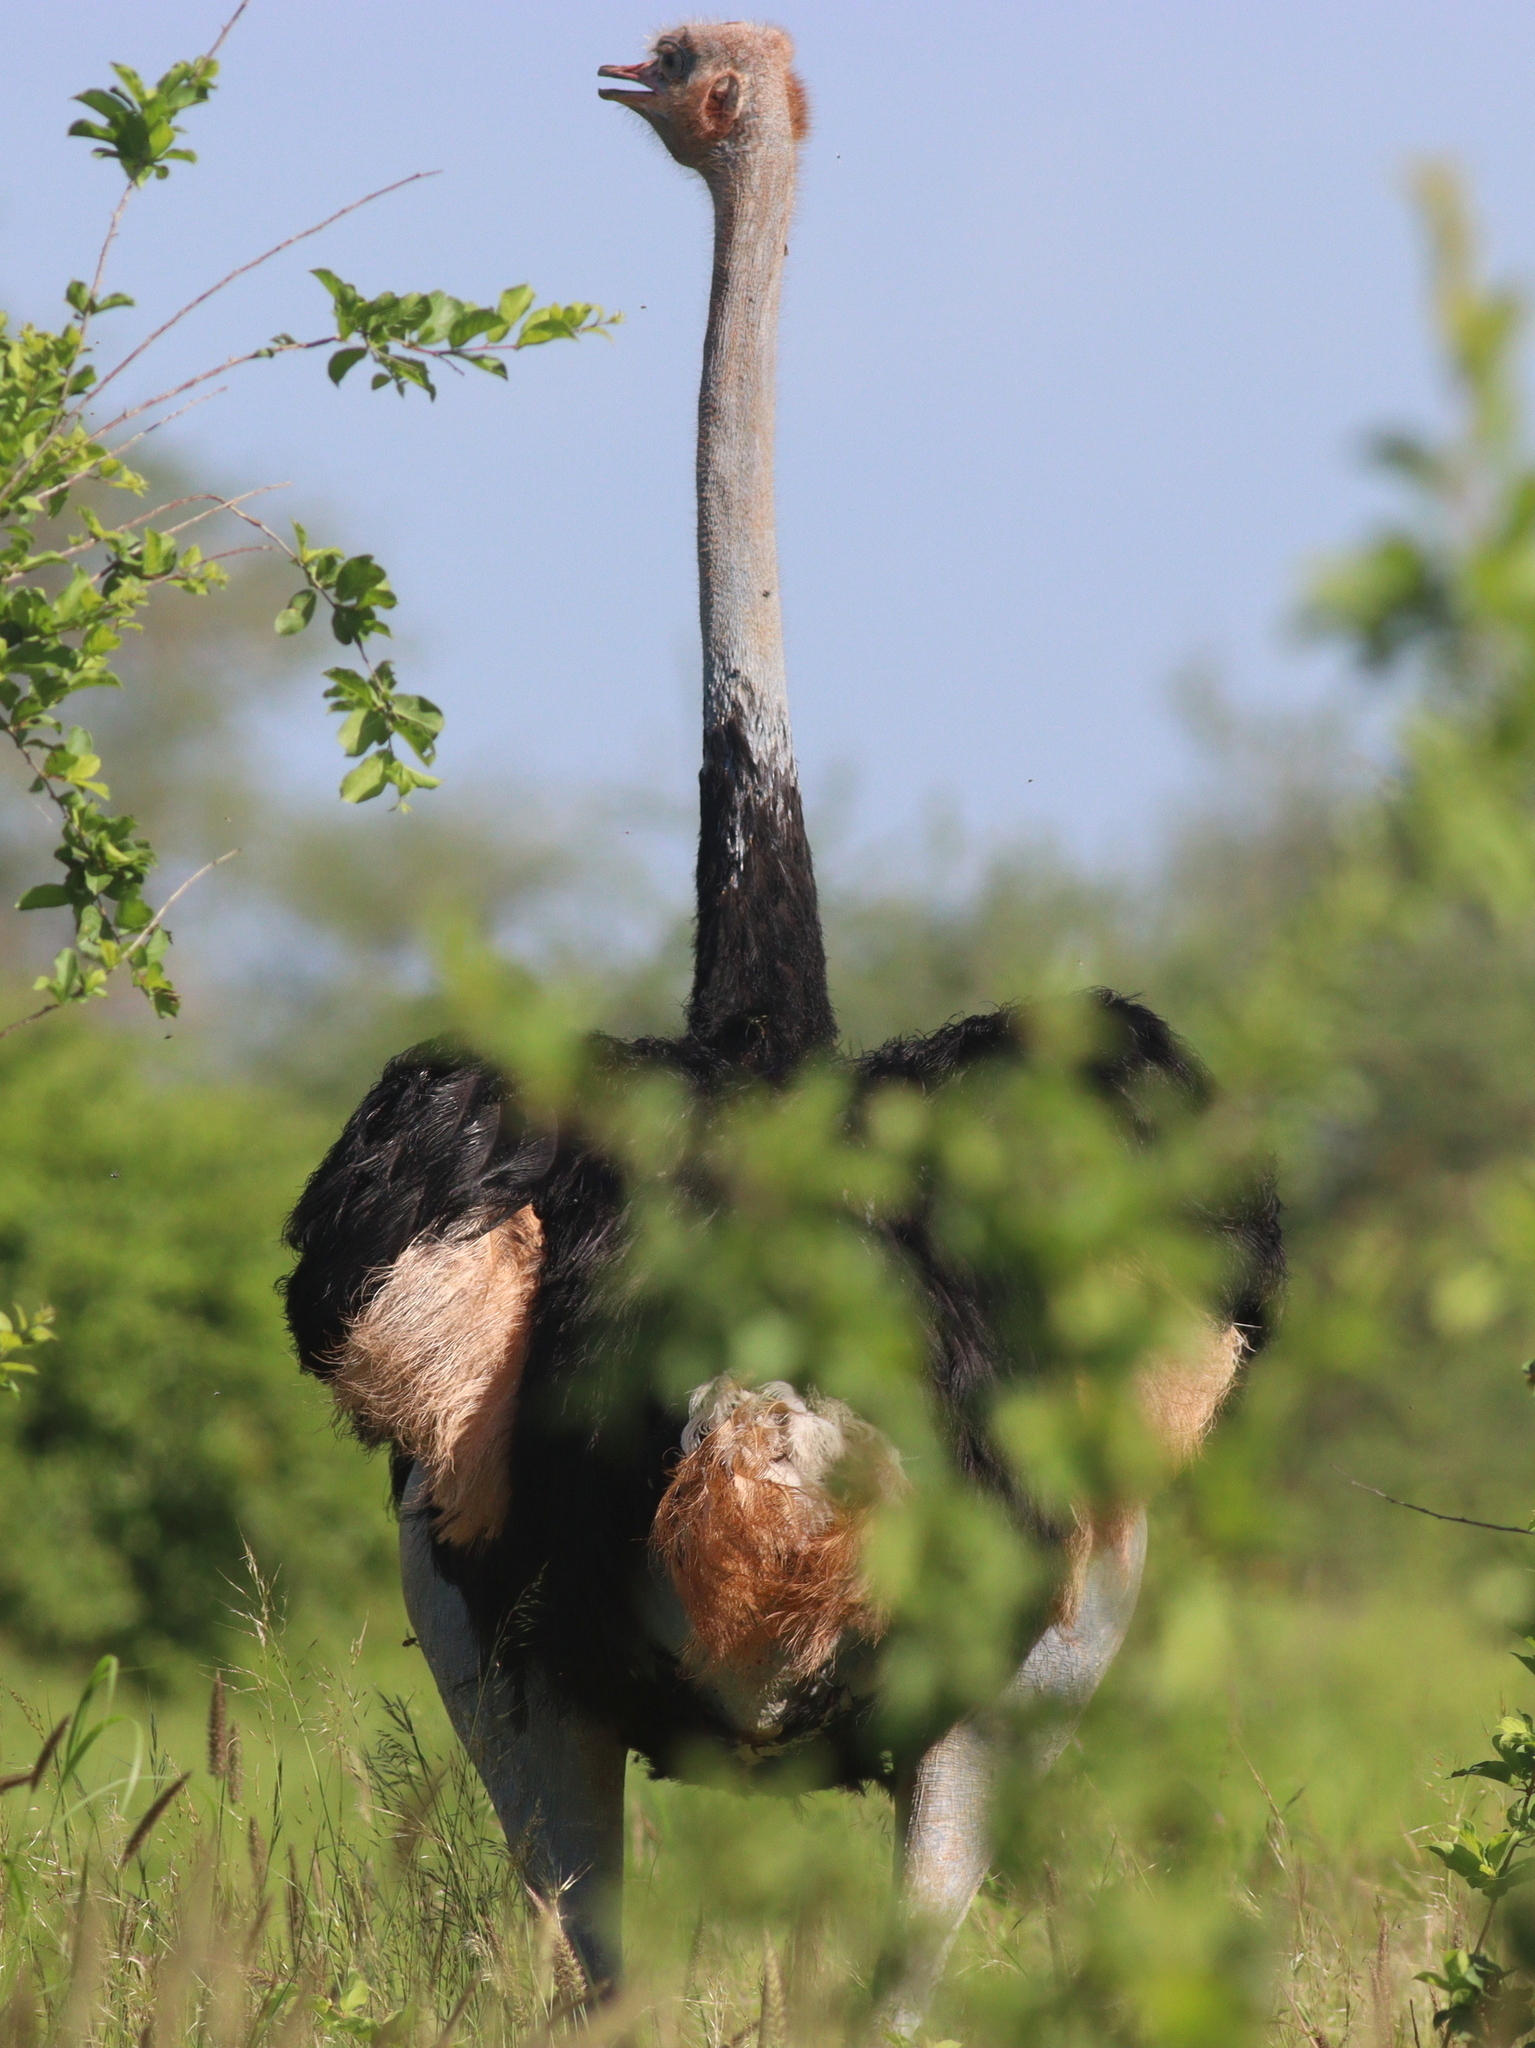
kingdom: Animalia
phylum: Chordata
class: Aves
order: Struthioniformes
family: Struthionidae
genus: Struthio
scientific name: Struthio molybdophanes
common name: Somali ostrich
